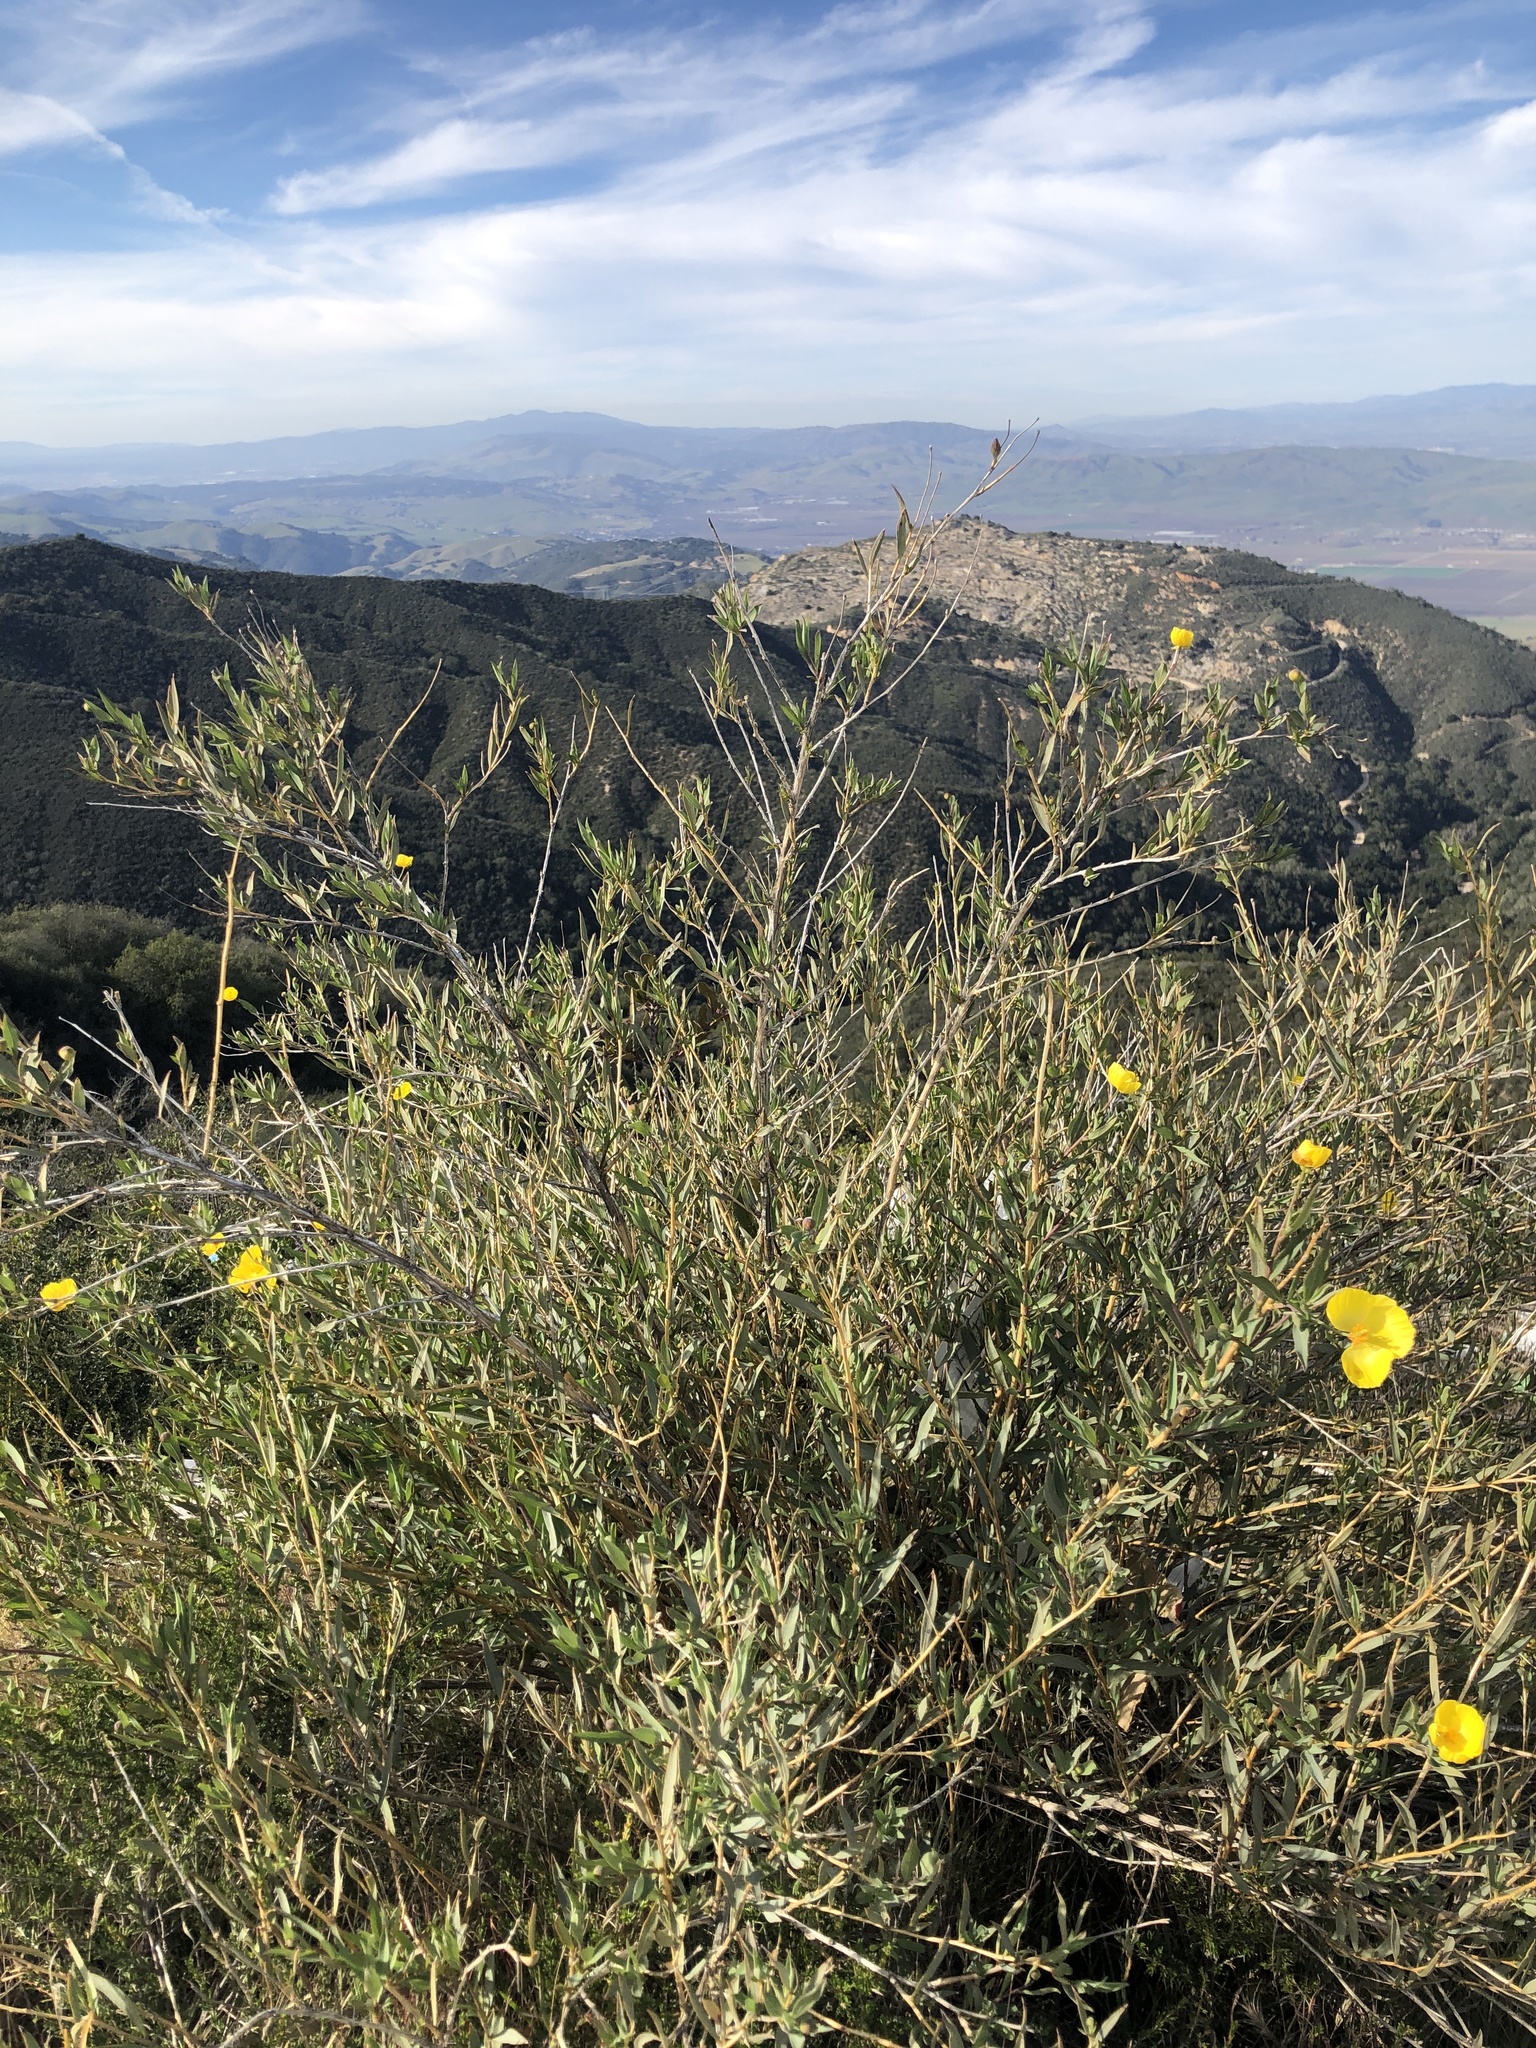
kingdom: Plantae
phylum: Tracheophyta
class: Magnoliopsida
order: Ranunculales
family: Papaveraceae
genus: Dendromecon
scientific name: Dendromecon rigida
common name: Tree poppy
